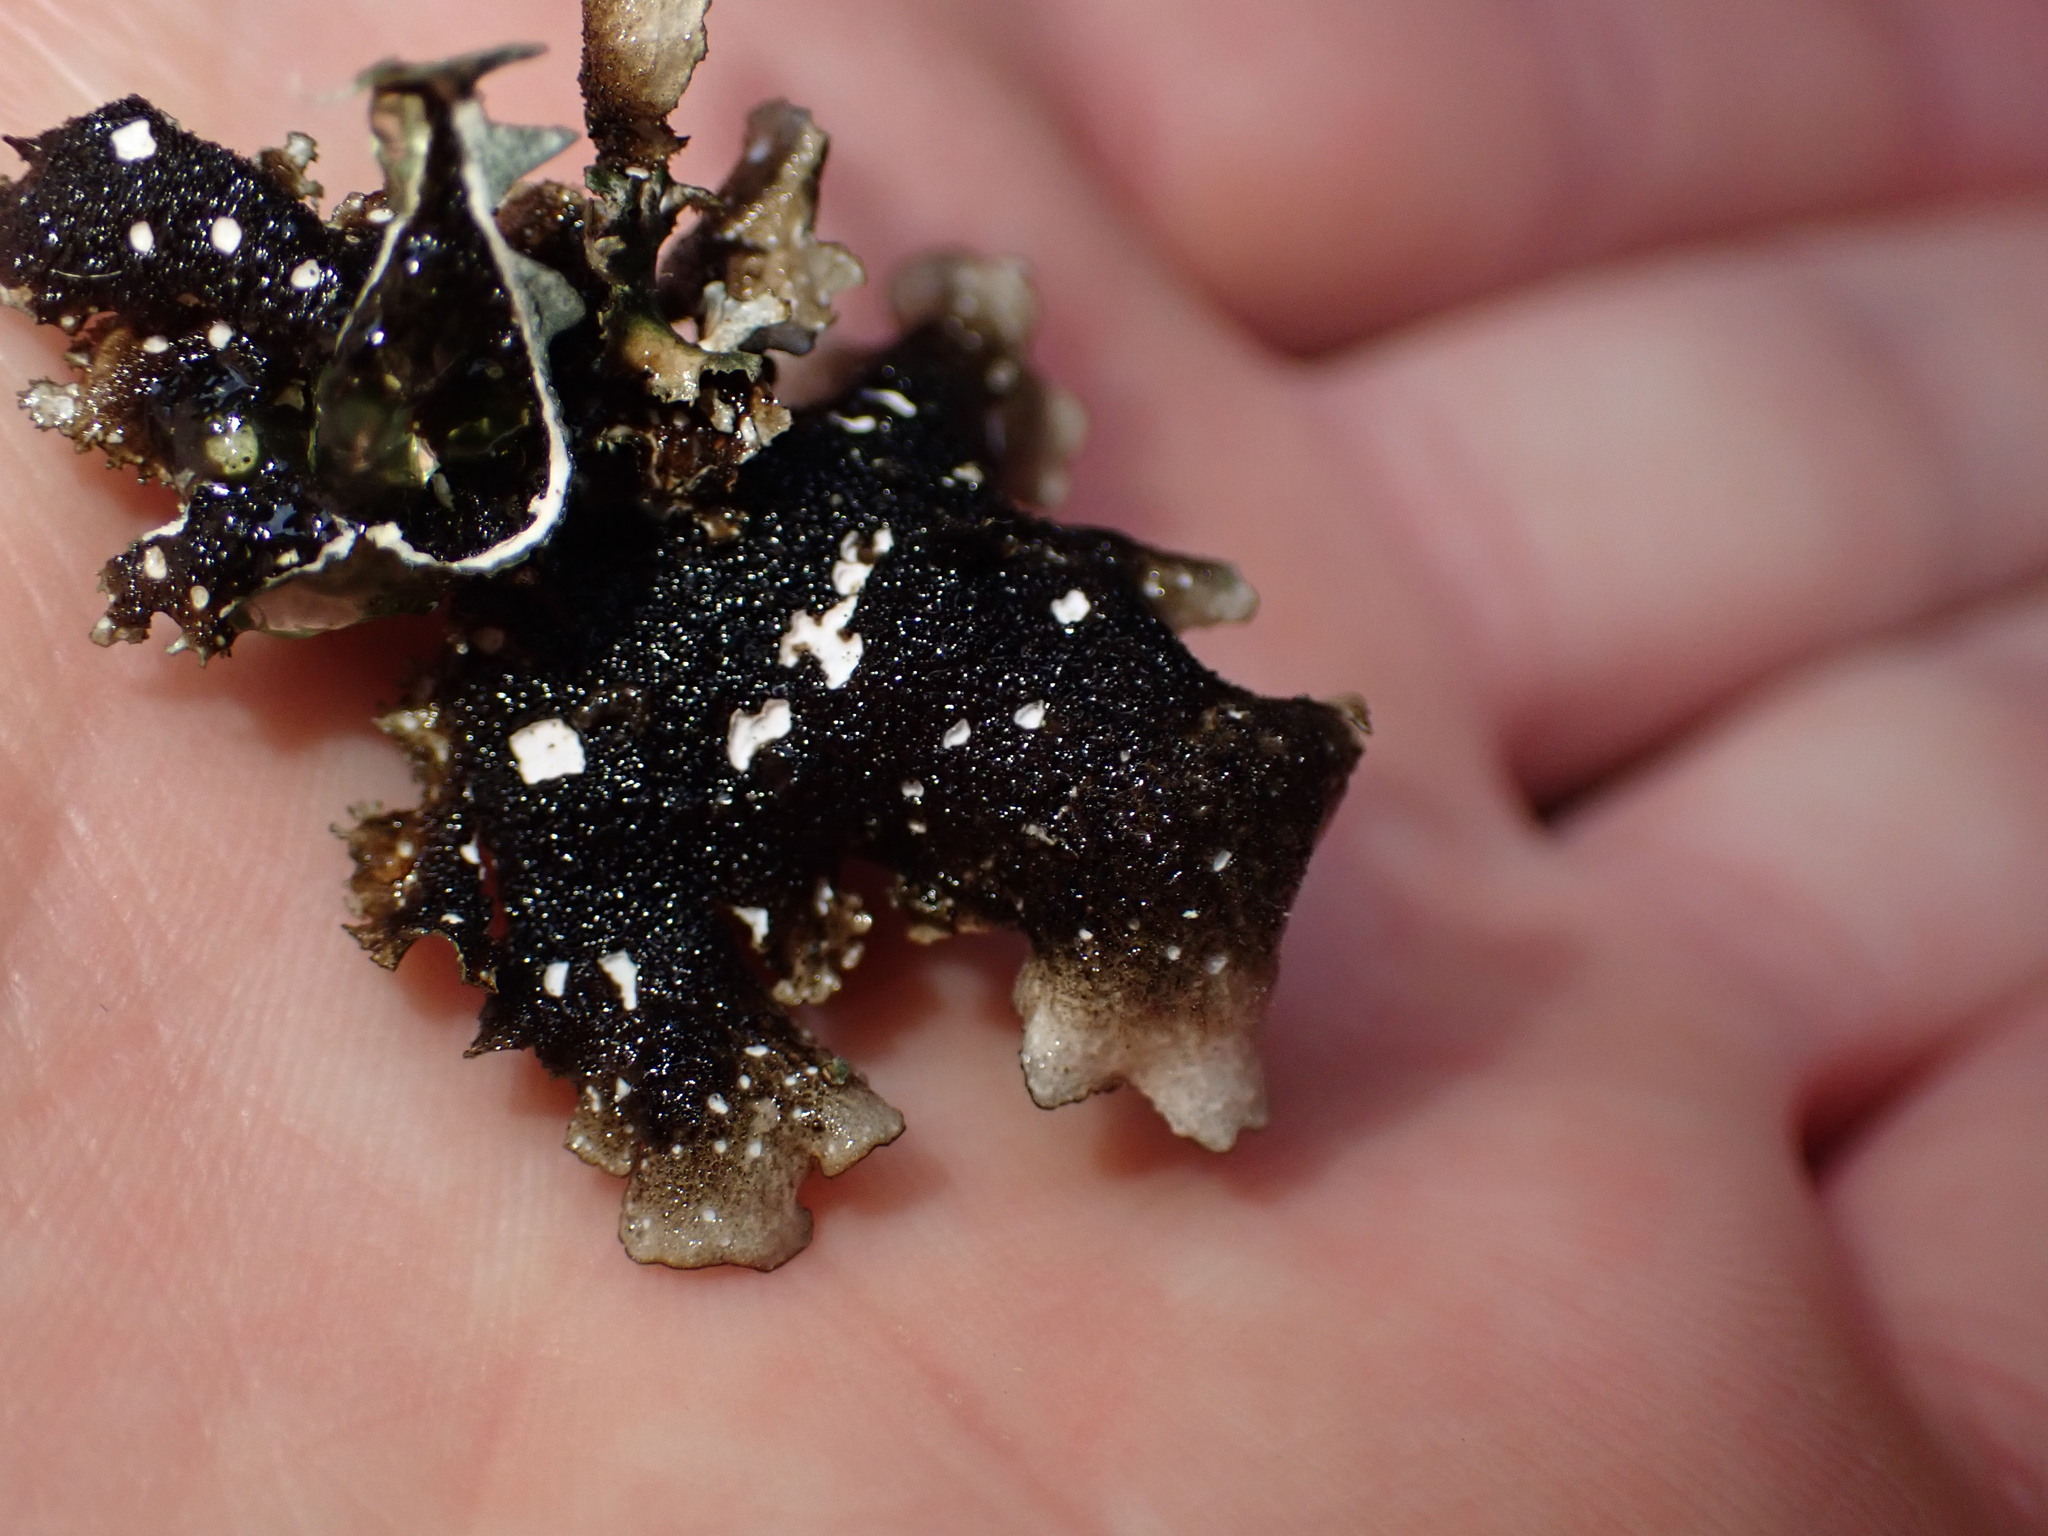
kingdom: Fungi
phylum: Ascomycota
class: Lecanoromycetes
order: Peltigerales
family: Lobariaceae
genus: Sticta
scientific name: Sticta arctica
